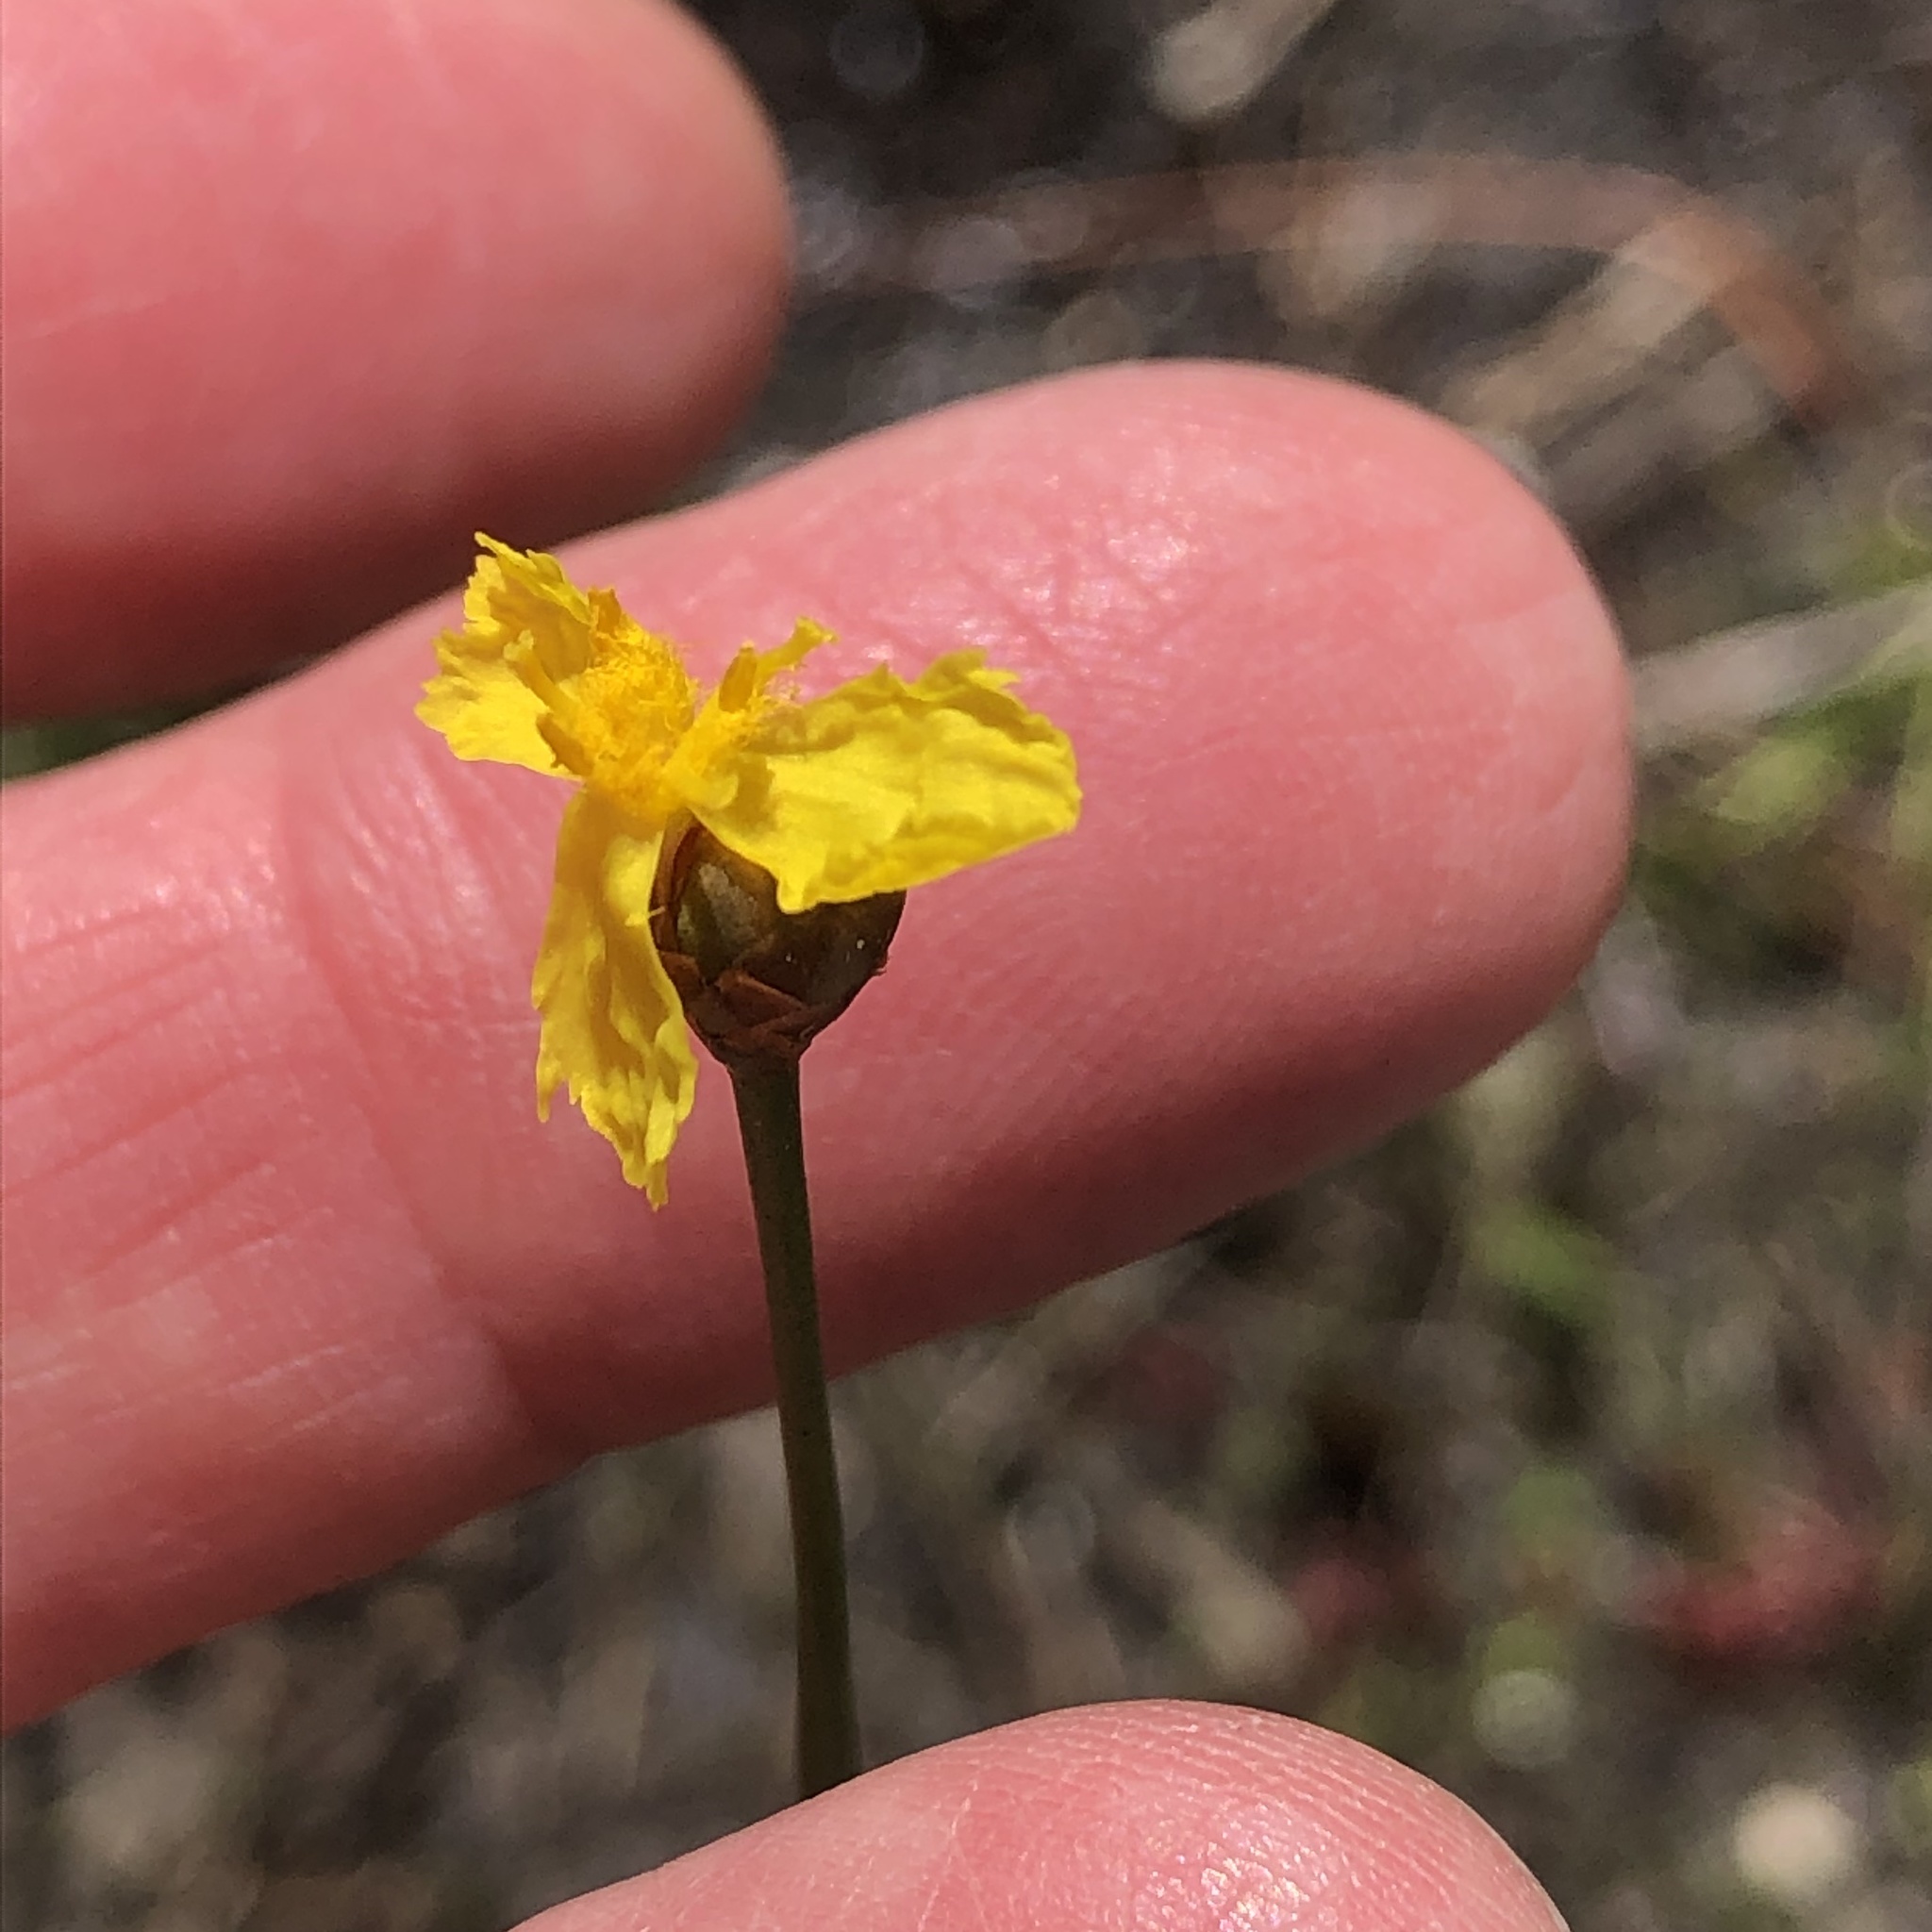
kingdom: Plantae
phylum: Tracheophyta
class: Liliopsida
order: Poales
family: Xyridaceae
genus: Xyris
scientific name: Xyris elliottii
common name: Elliot's yelloweyed grass
